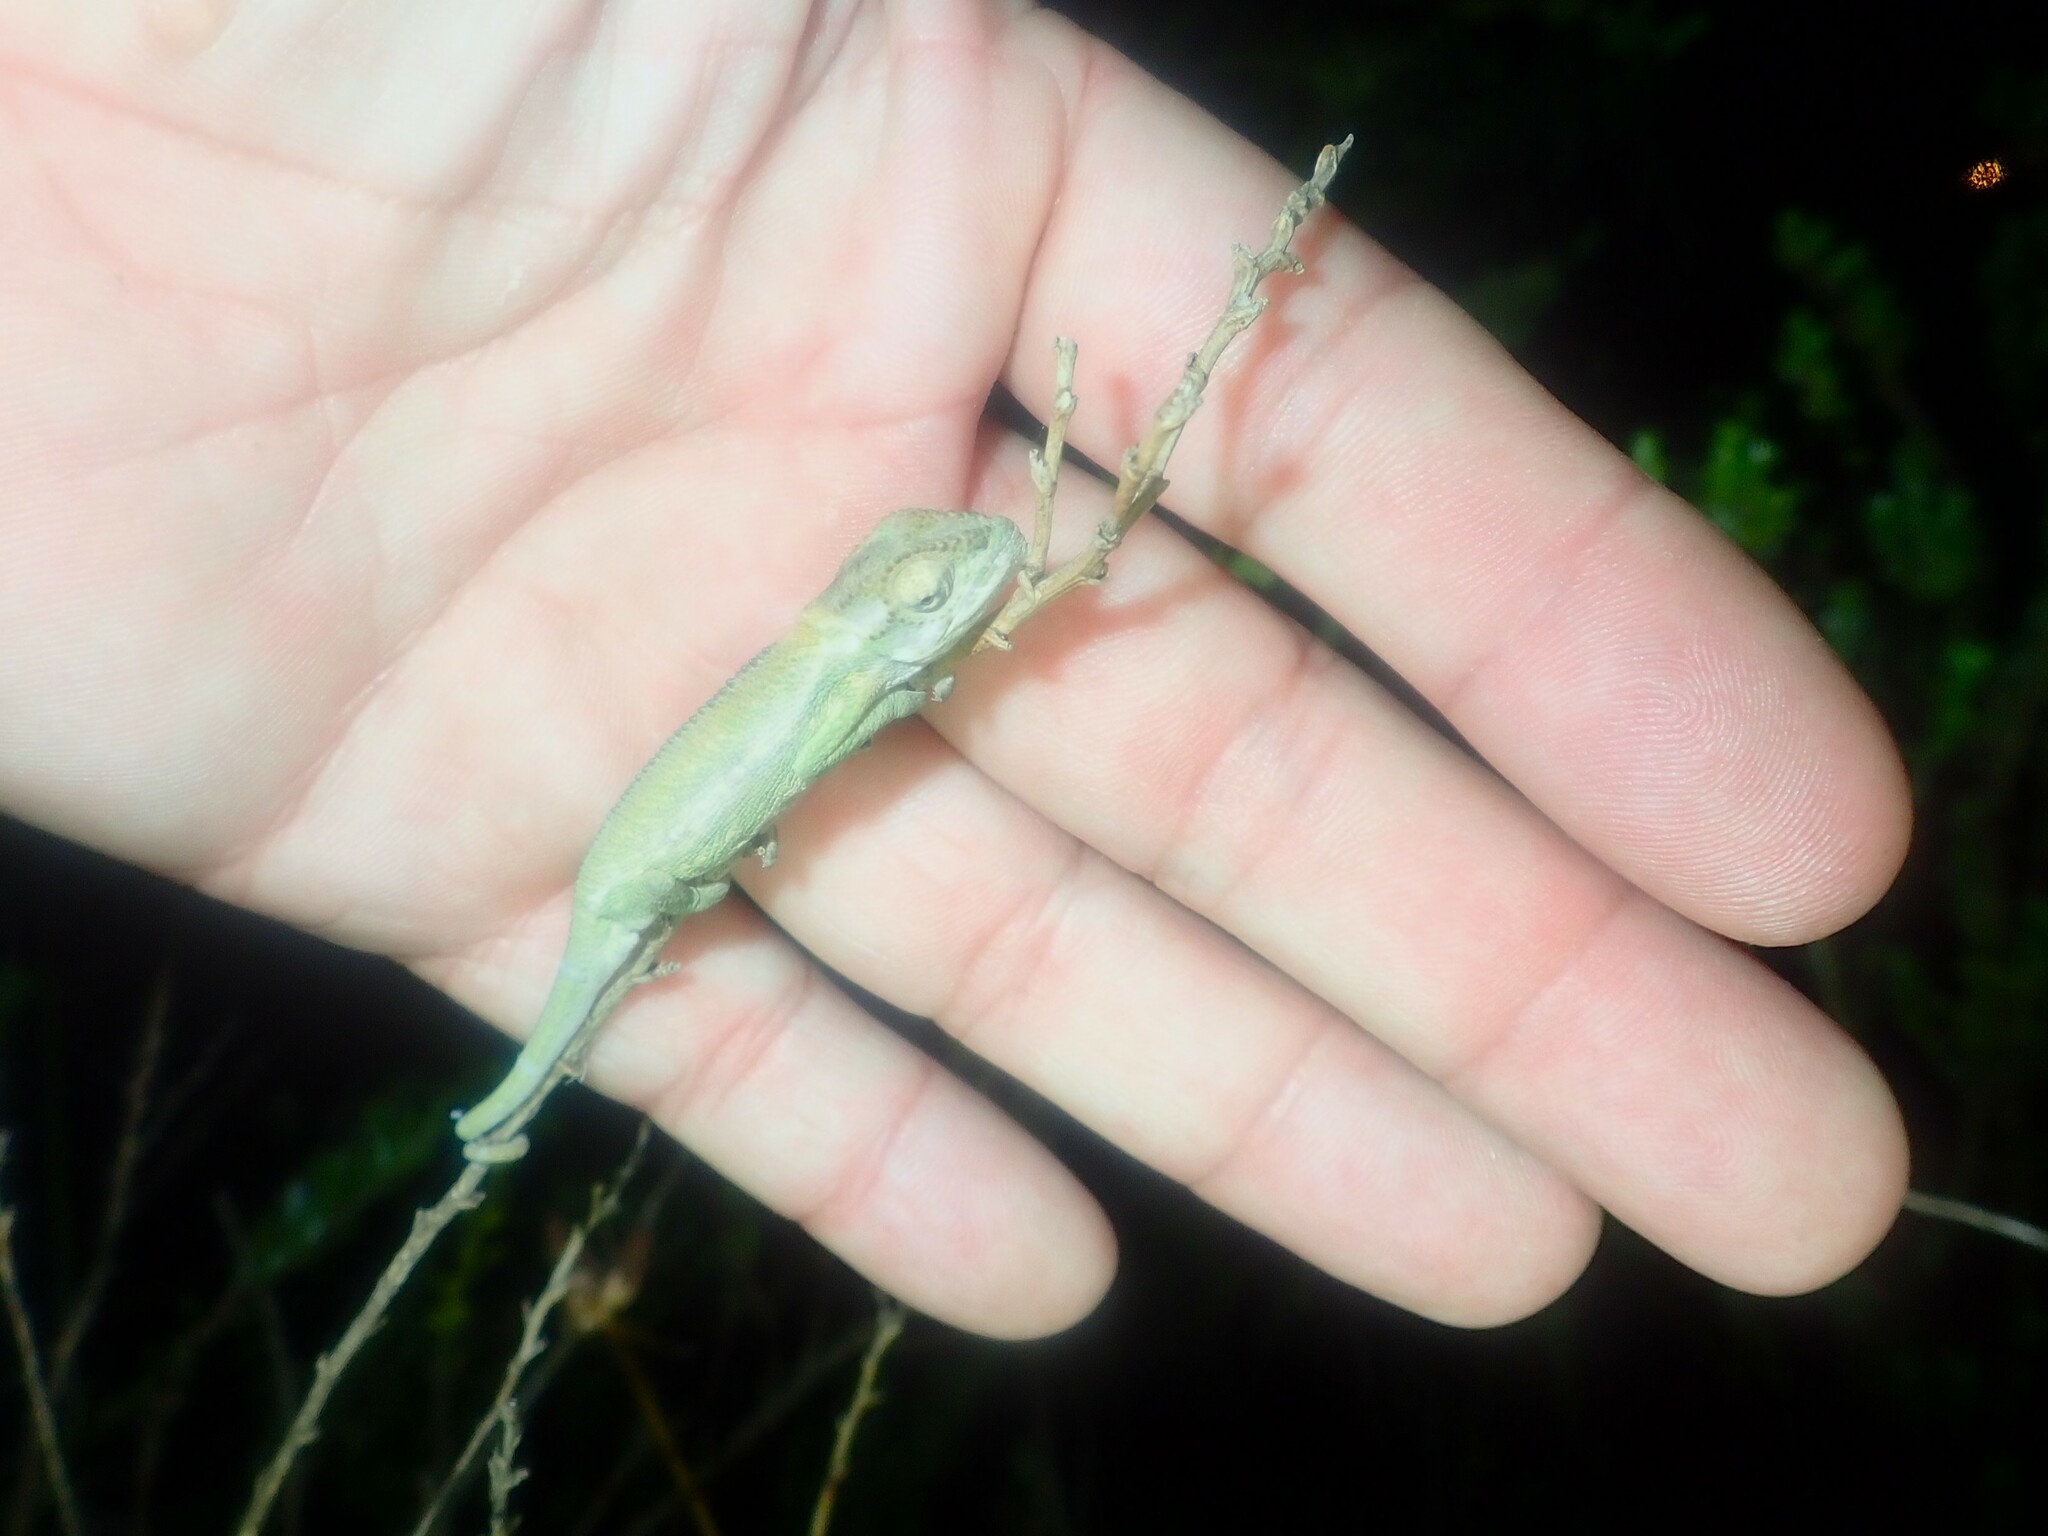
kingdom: Animalia
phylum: Chordata
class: Squamata
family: Chamaeleonidae
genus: Bradypodion
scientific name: Bradypodion pumilum
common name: Cape dwarf chameleon
